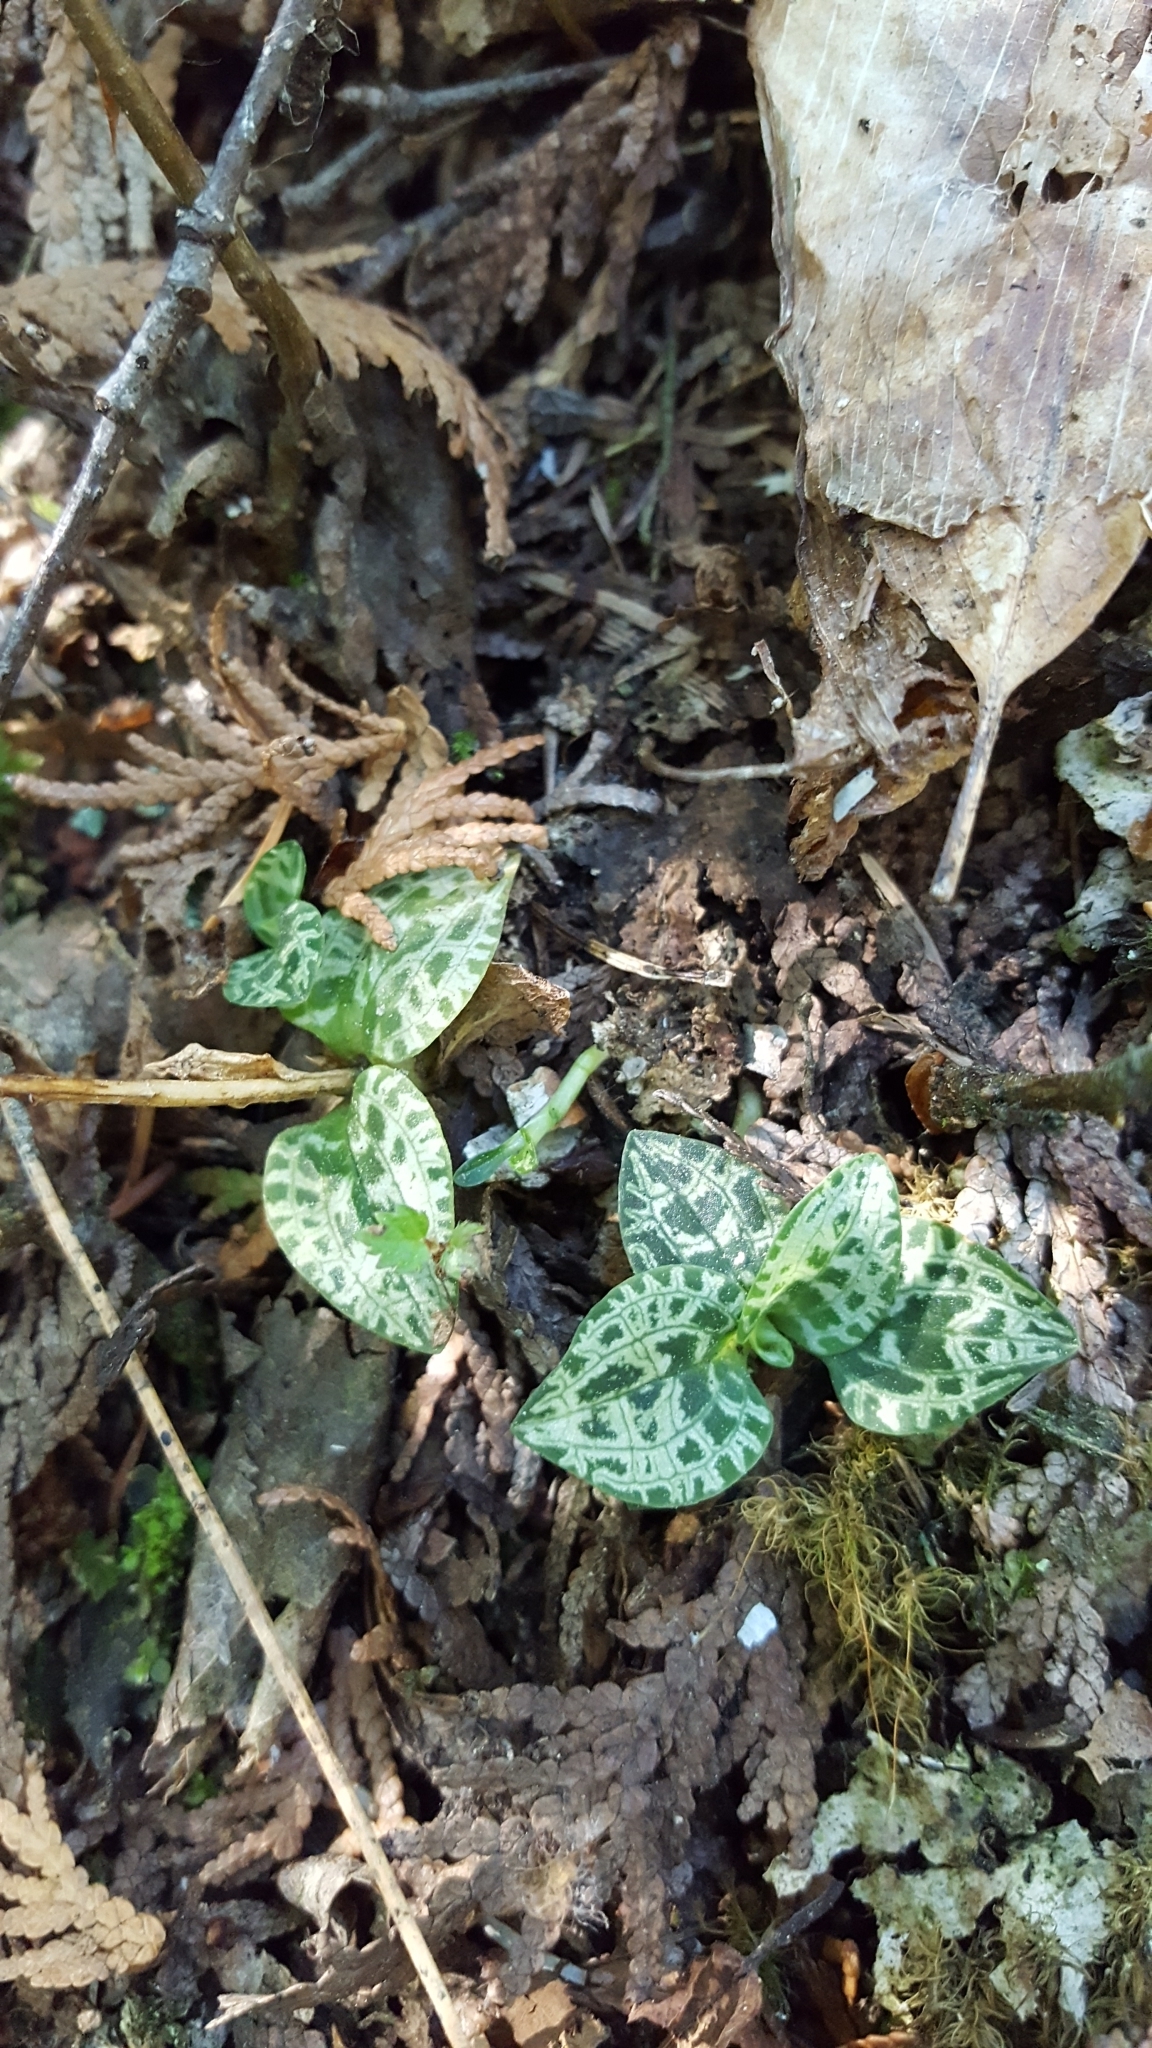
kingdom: Plantae
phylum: Tracheophyta
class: Liliopsida
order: Asparagales
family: Orchidaceae
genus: Goodyera
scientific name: Goodyera repens
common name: Creeping lady's-tresses
